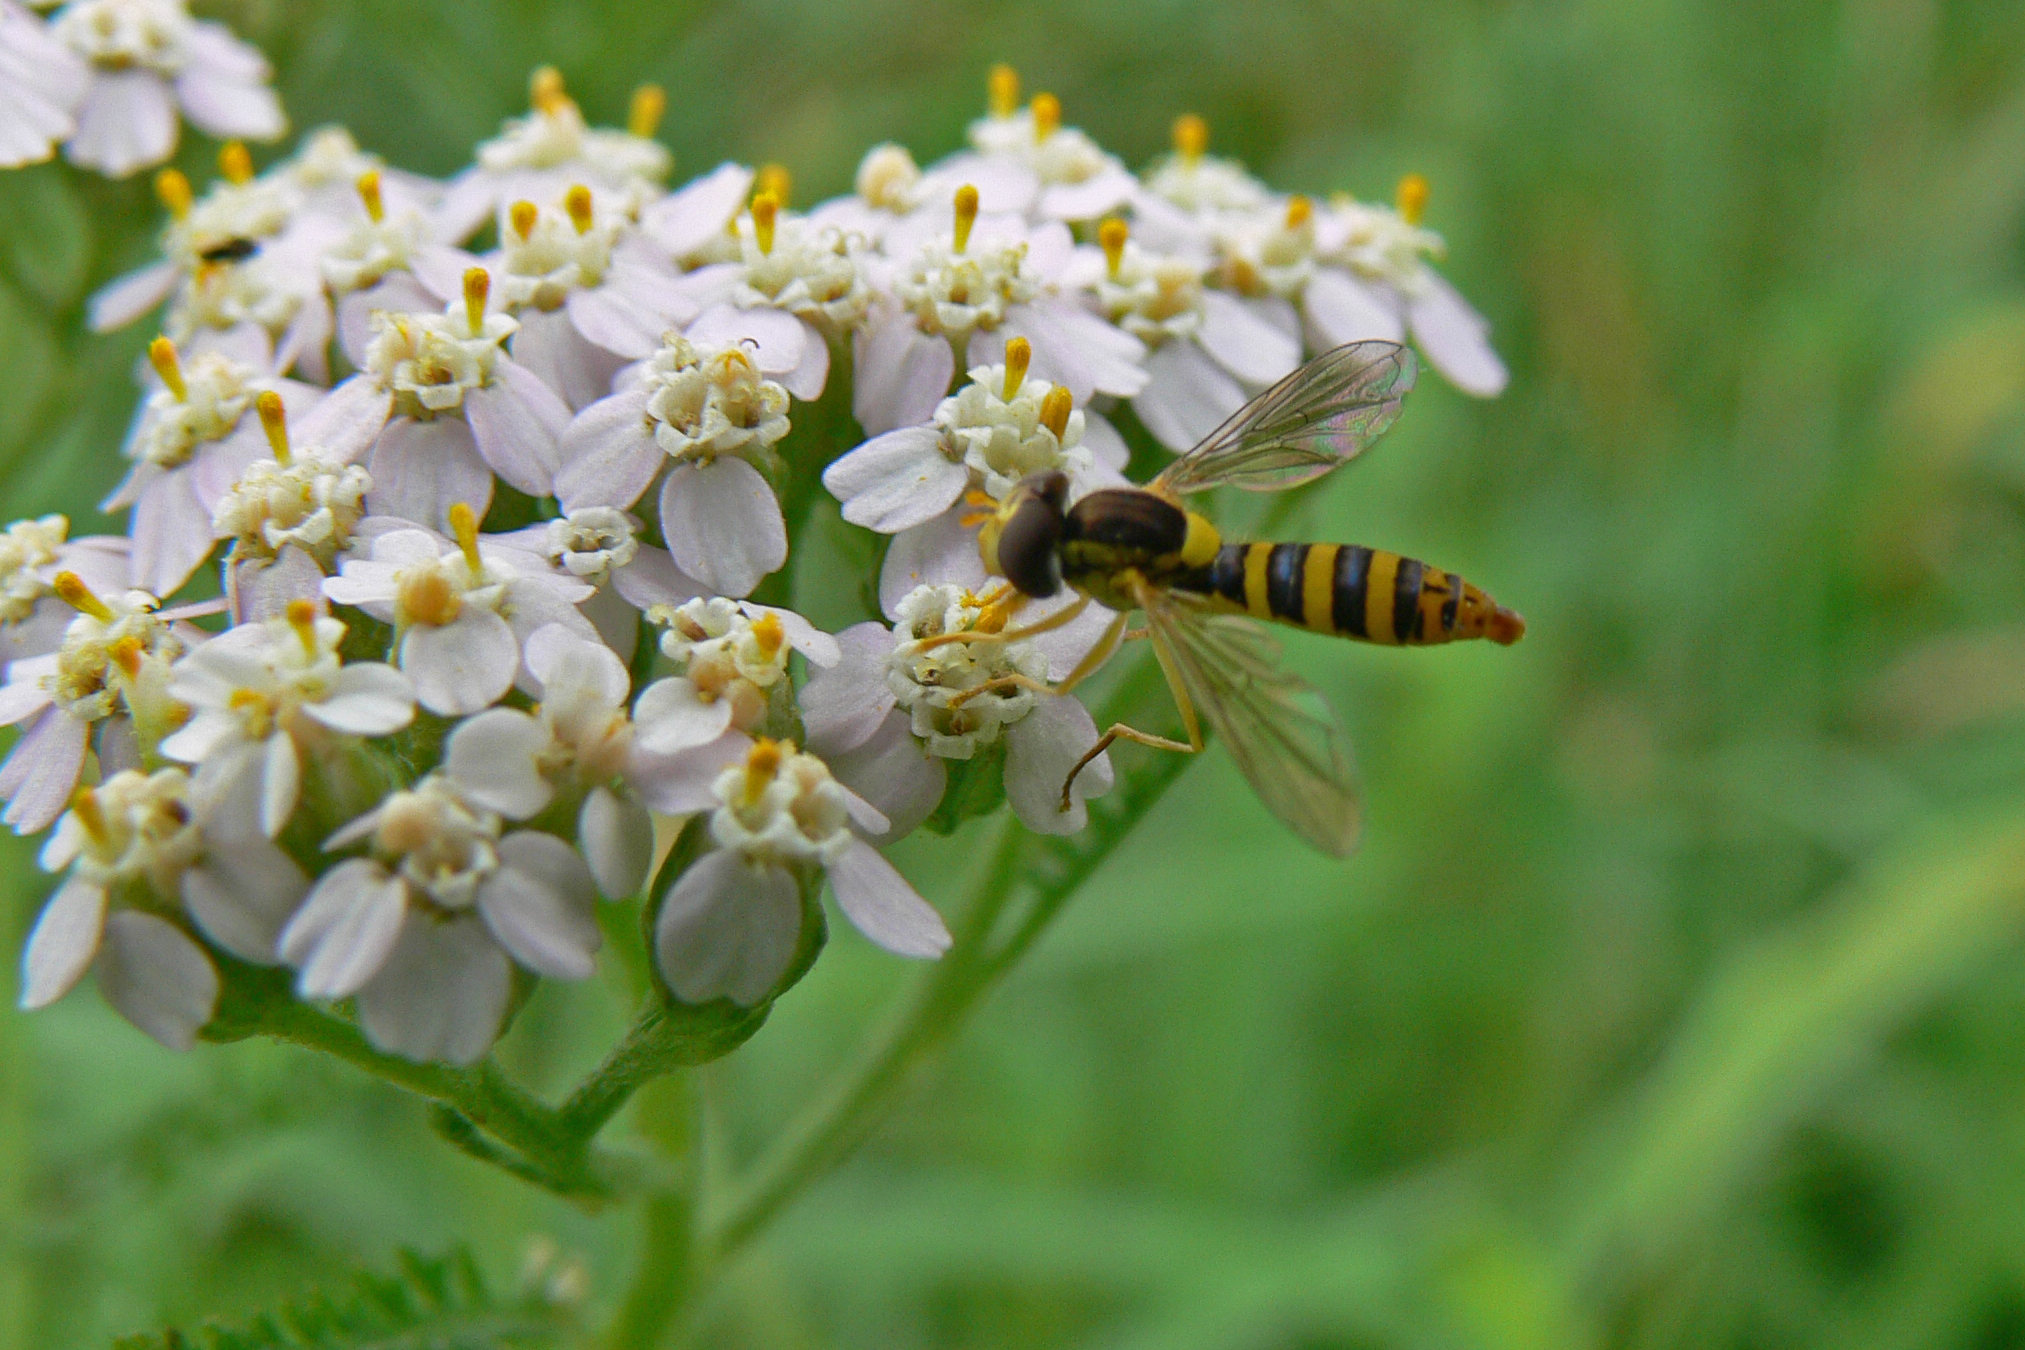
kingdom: Animalia
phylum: Arthropoda
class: Insecta
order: Diptera
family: Syrphidae
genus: Sphaerophoria
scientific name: Sphaerophoria
